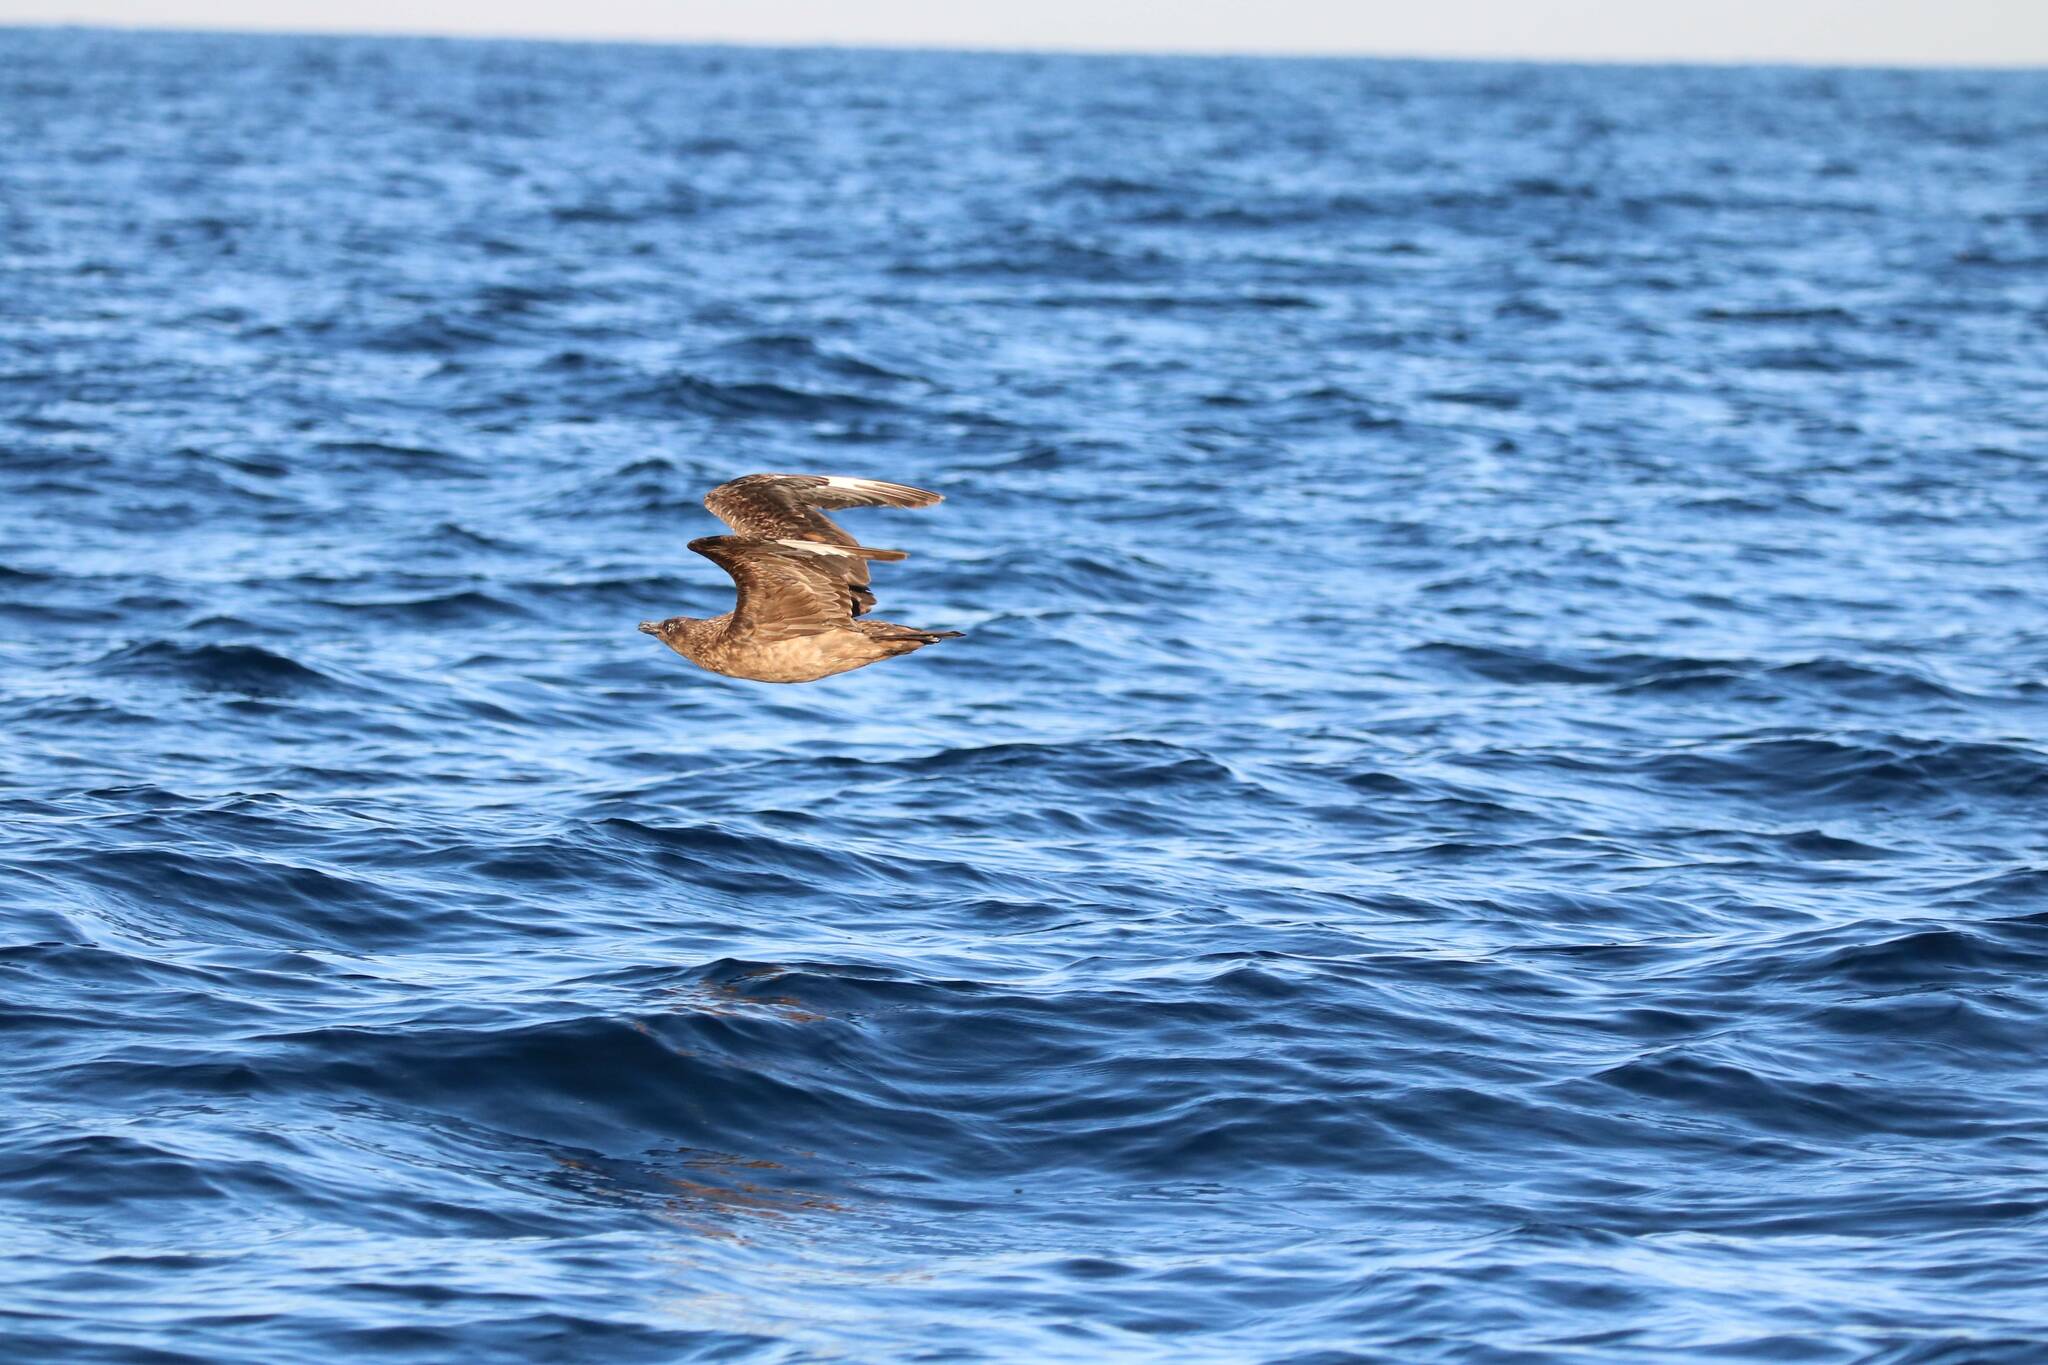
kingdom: Animalia
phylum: Chordata
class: Aves
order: Charadriiformes
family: Stercorariidae
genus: Stercorarius
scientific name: Stercorarius skua
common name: Great skua
